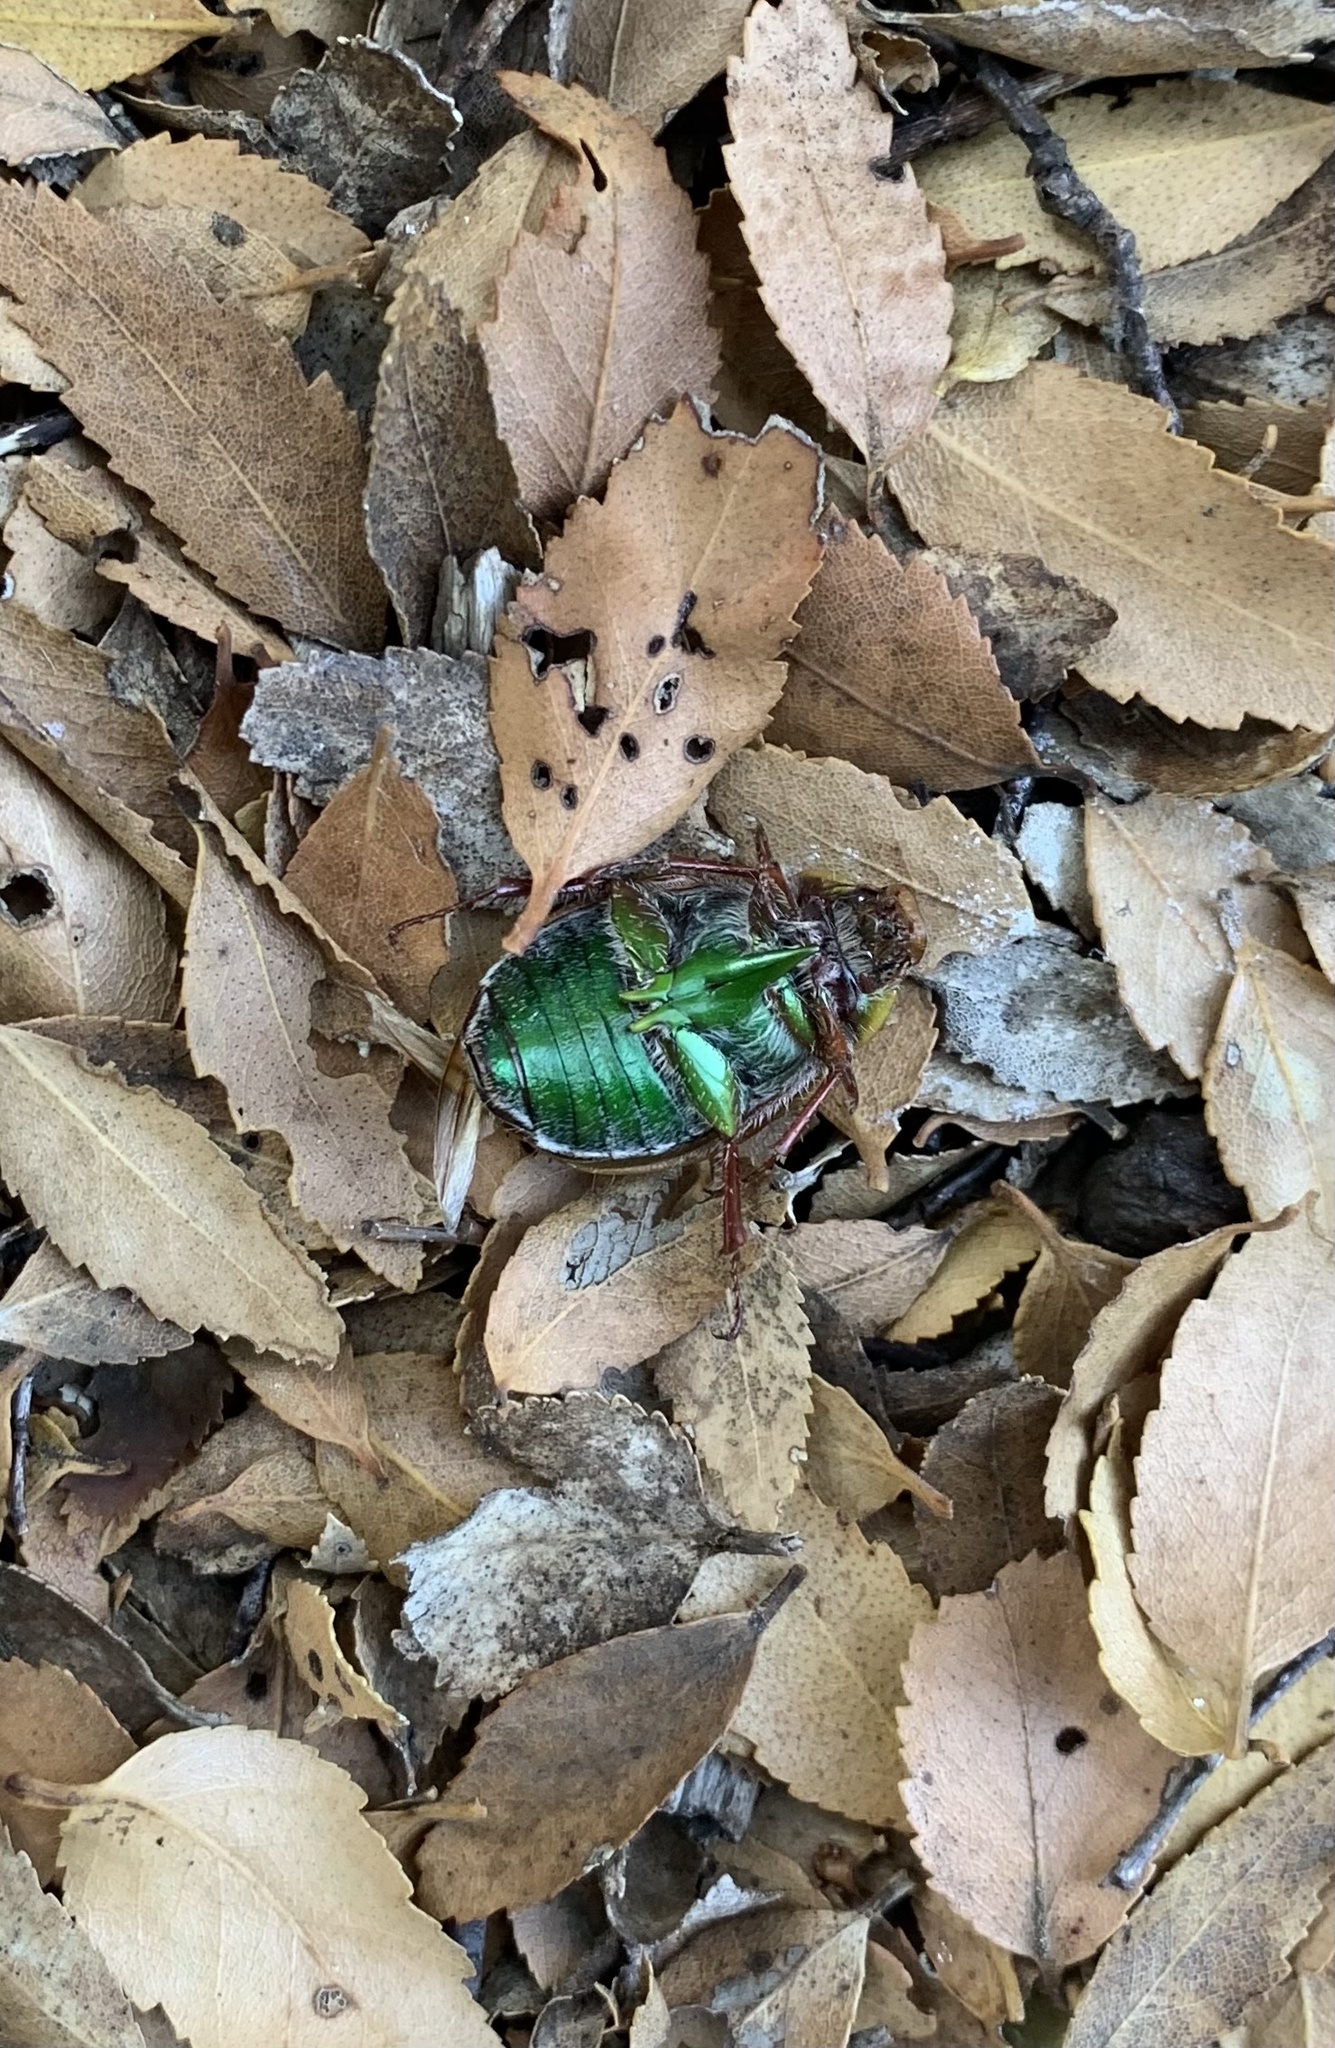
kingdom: Animalia
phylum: Arthropoda
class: Insecta
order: Coleoptera
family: Scarabaeidae
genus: Modialis
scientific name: Modialis prasinella
